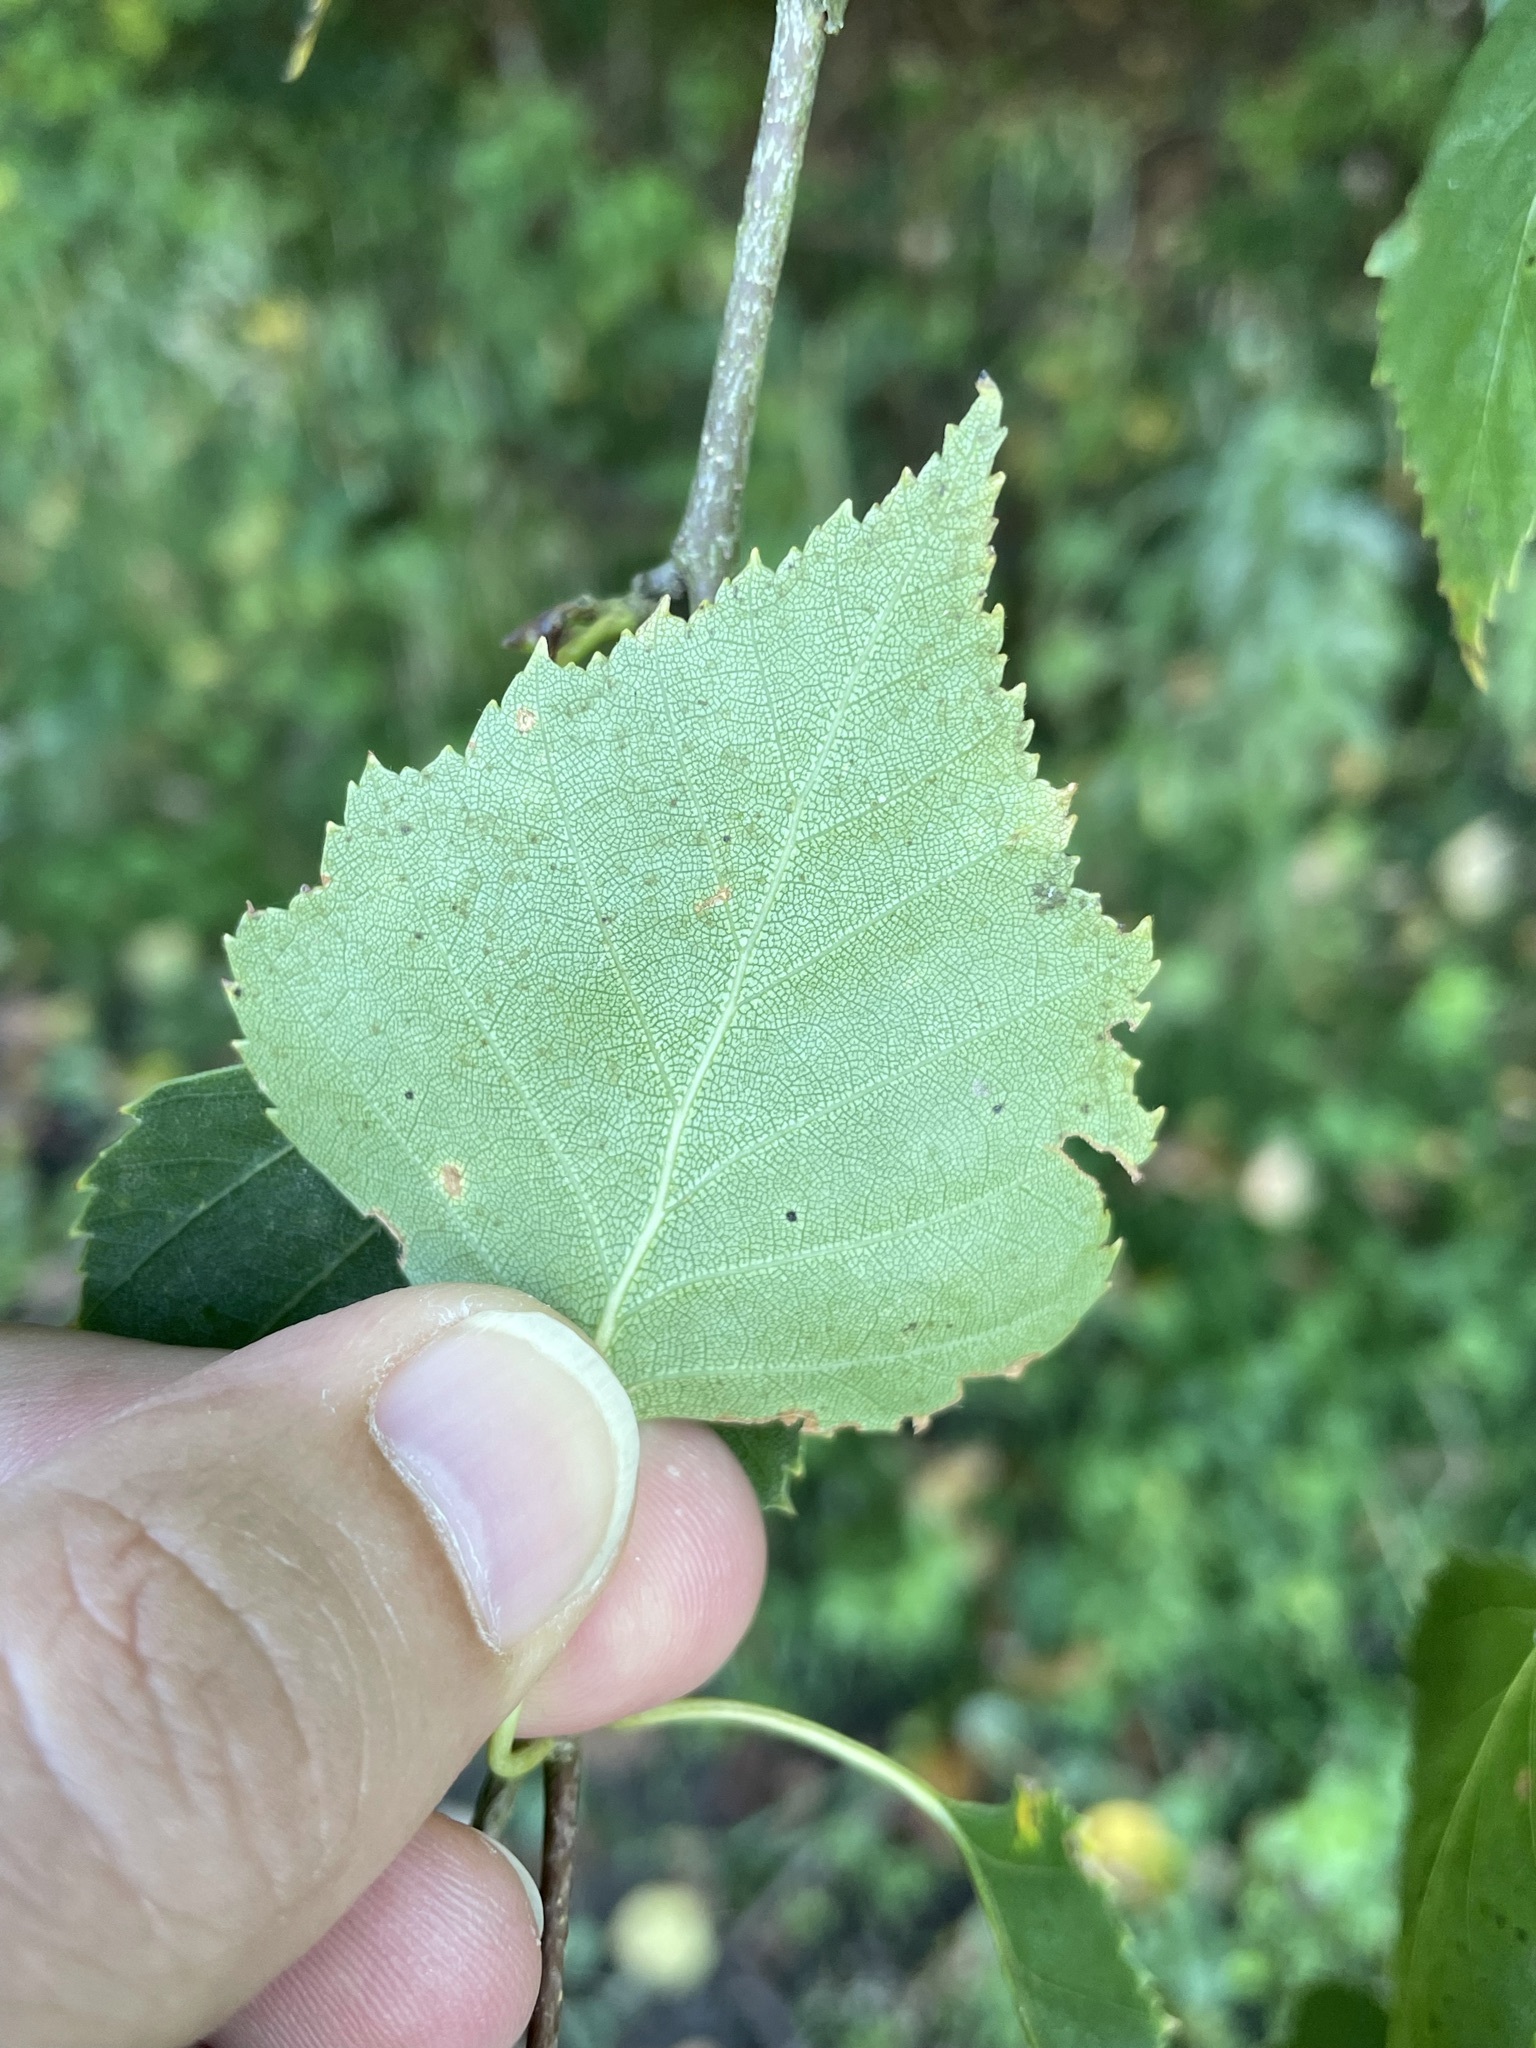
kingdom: Plantae
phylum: Tracheophyta
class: Magnoliopsida
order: Fagales
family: Betulaceae
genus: Betula
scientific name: Betula pendula
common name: Silver birch
